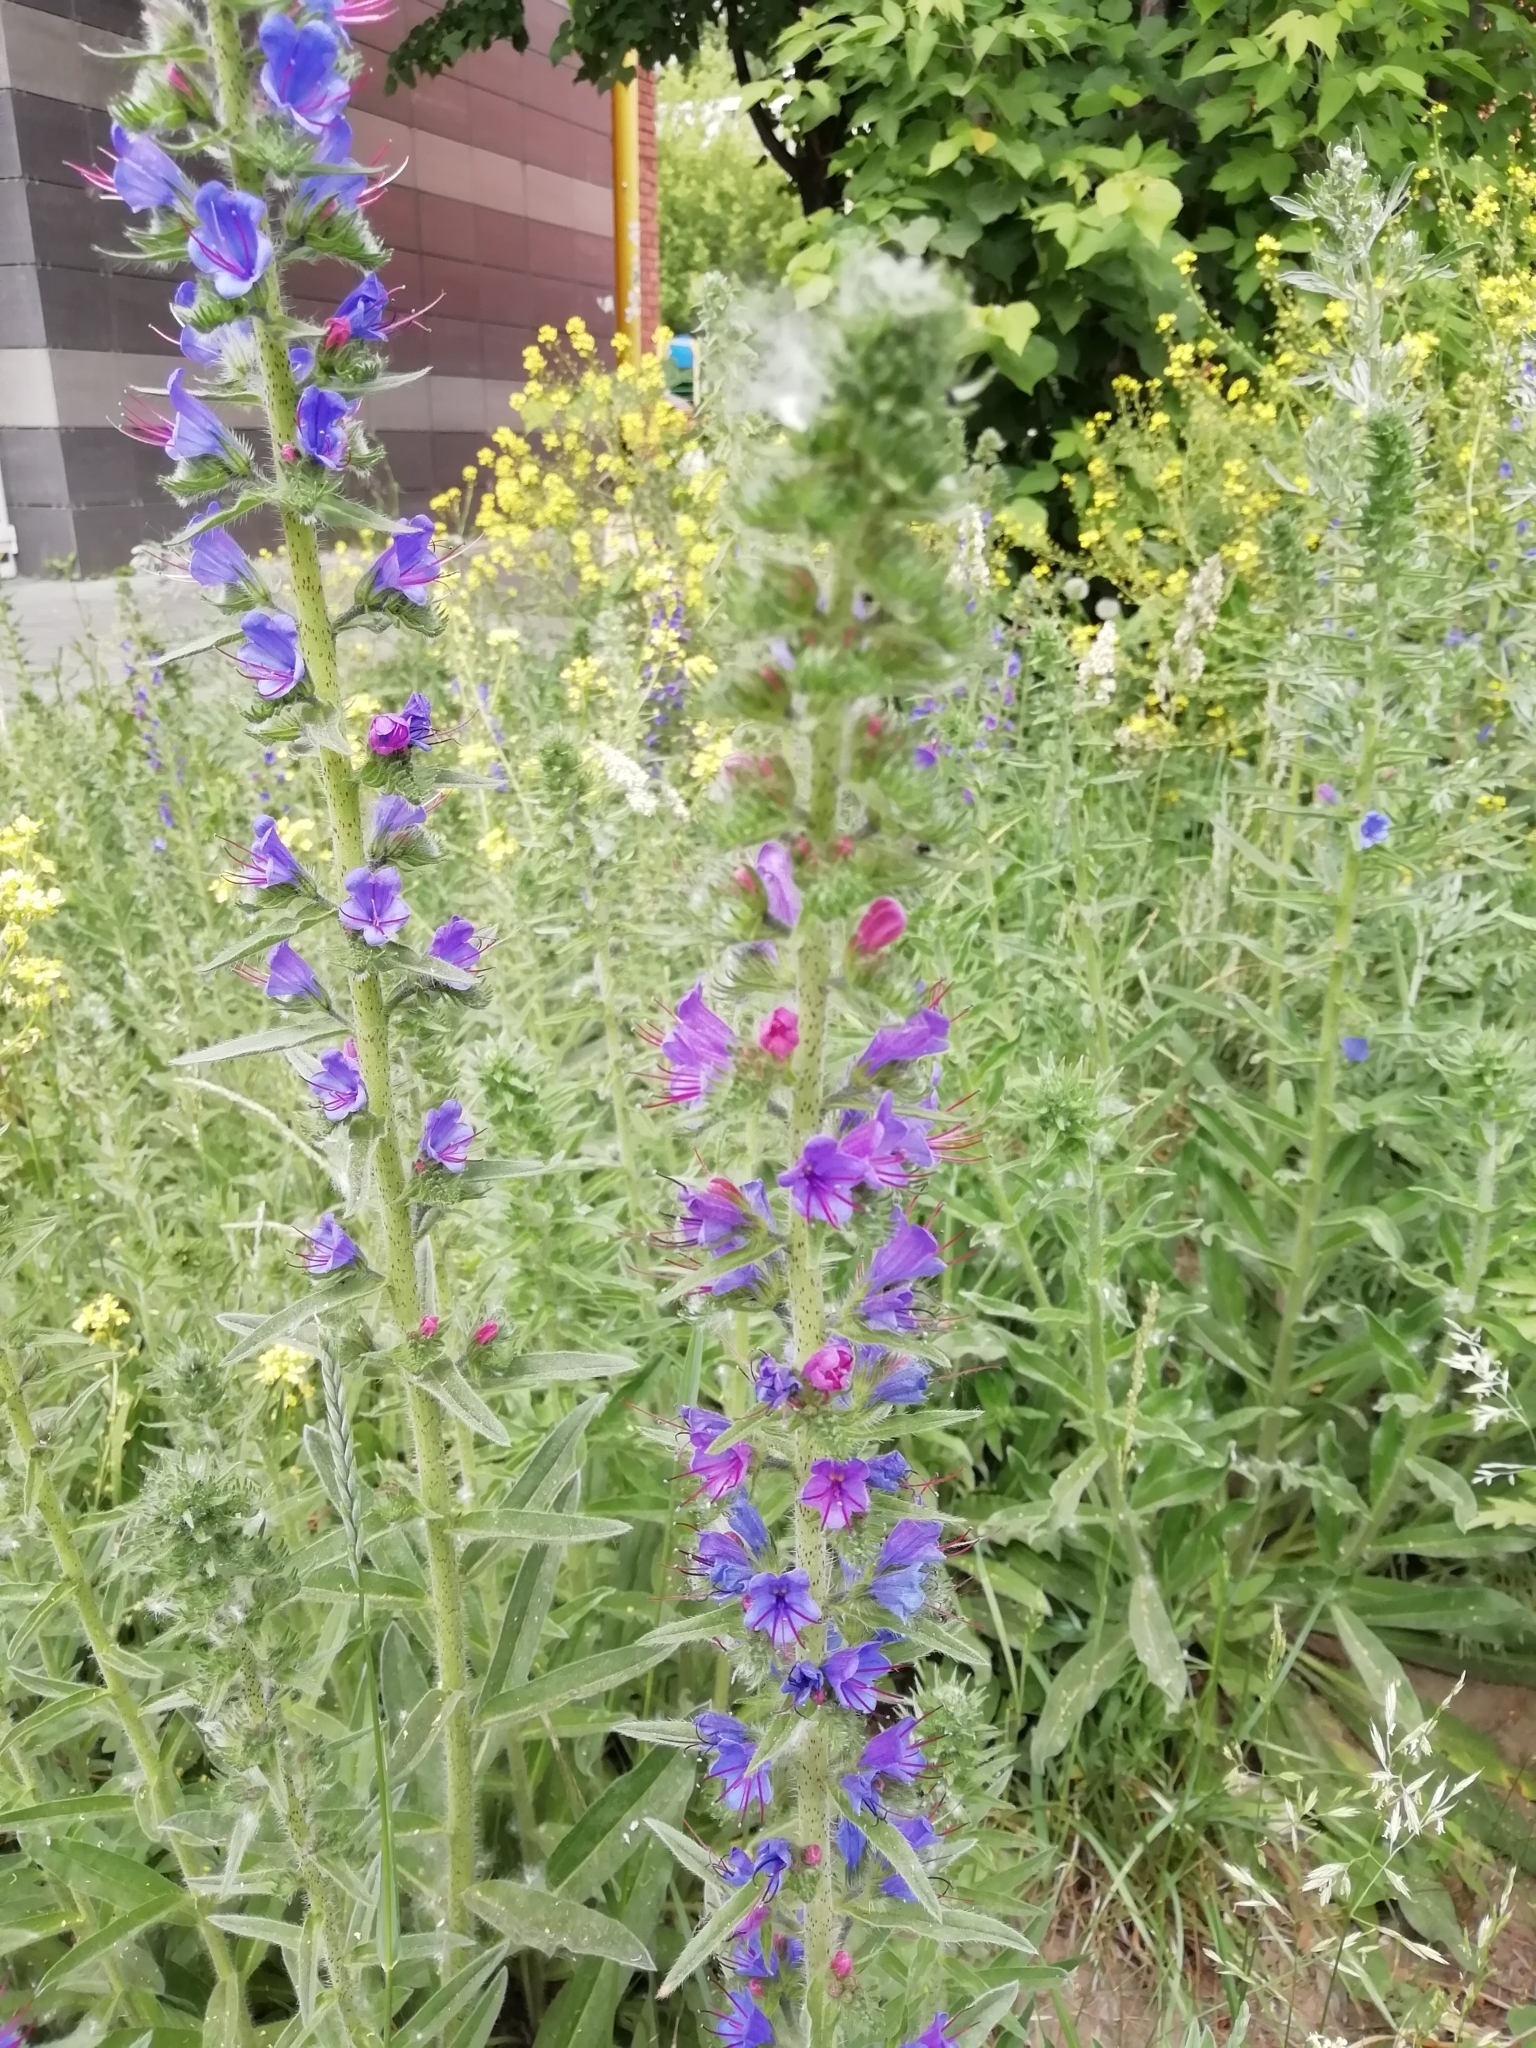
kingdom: Plantae
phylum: Tracheophyta
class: Magnoliopsida
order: Boraginales
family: Boraginaceae
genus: Echium
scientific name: Echium vulgare
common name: Common viper's bugloss
